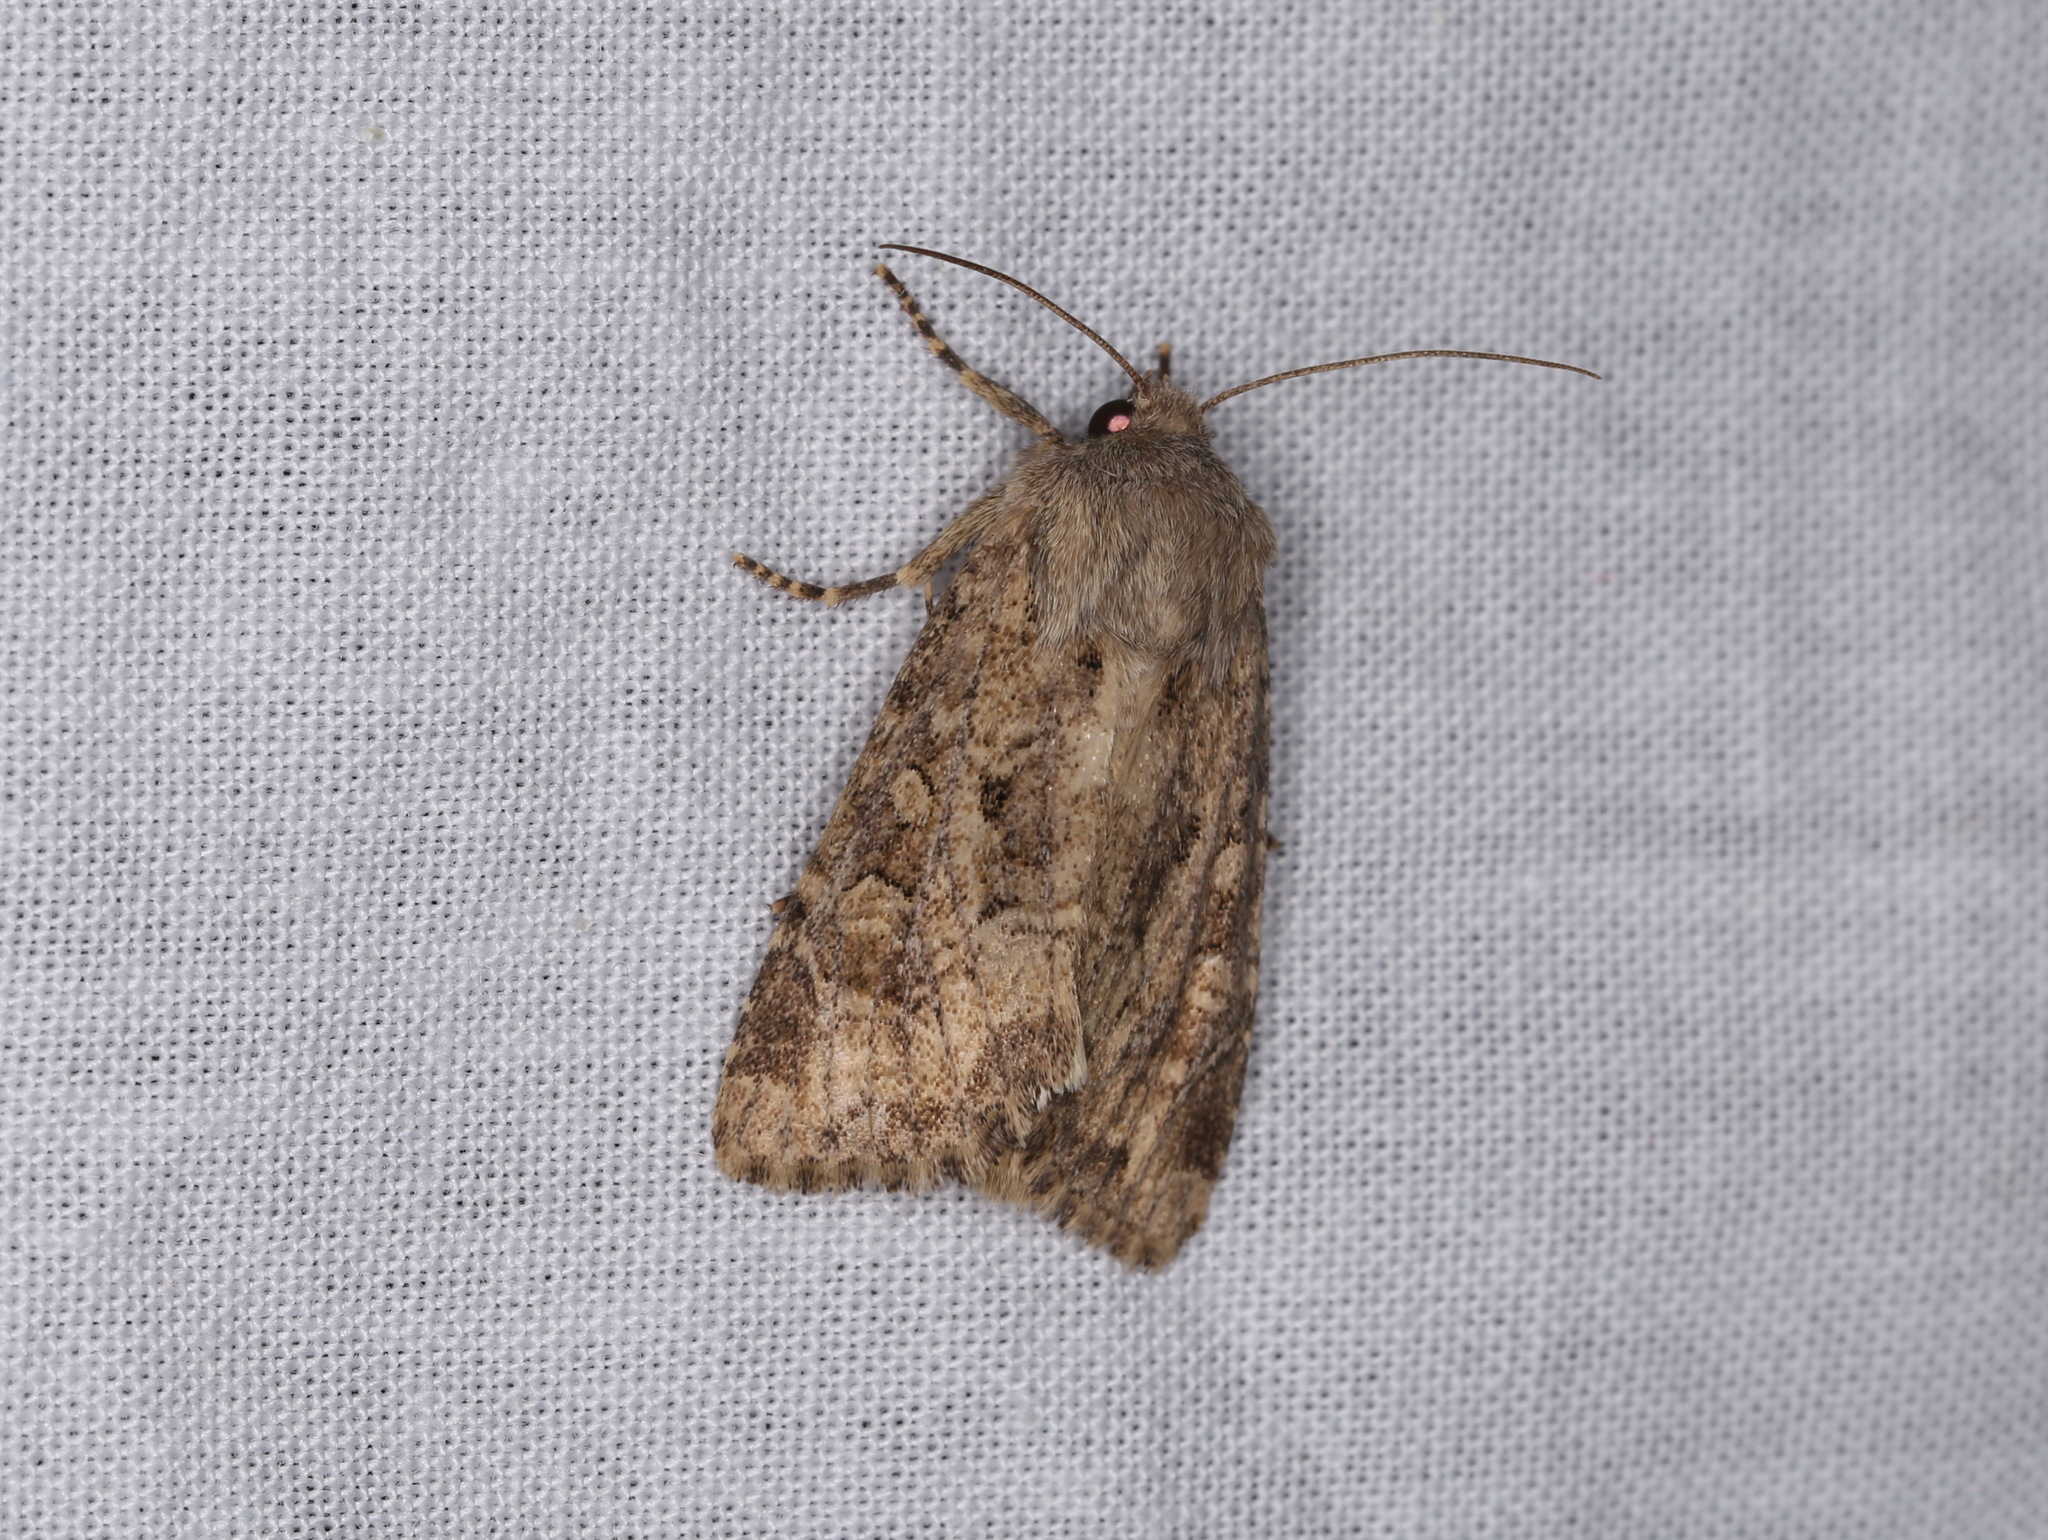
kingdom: Animalia
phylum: Arthropoda
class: Insecta
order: Lepidoptera
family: Noctuidae
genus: Luperina
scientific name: Luperina testacea
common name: Flounced rustic
